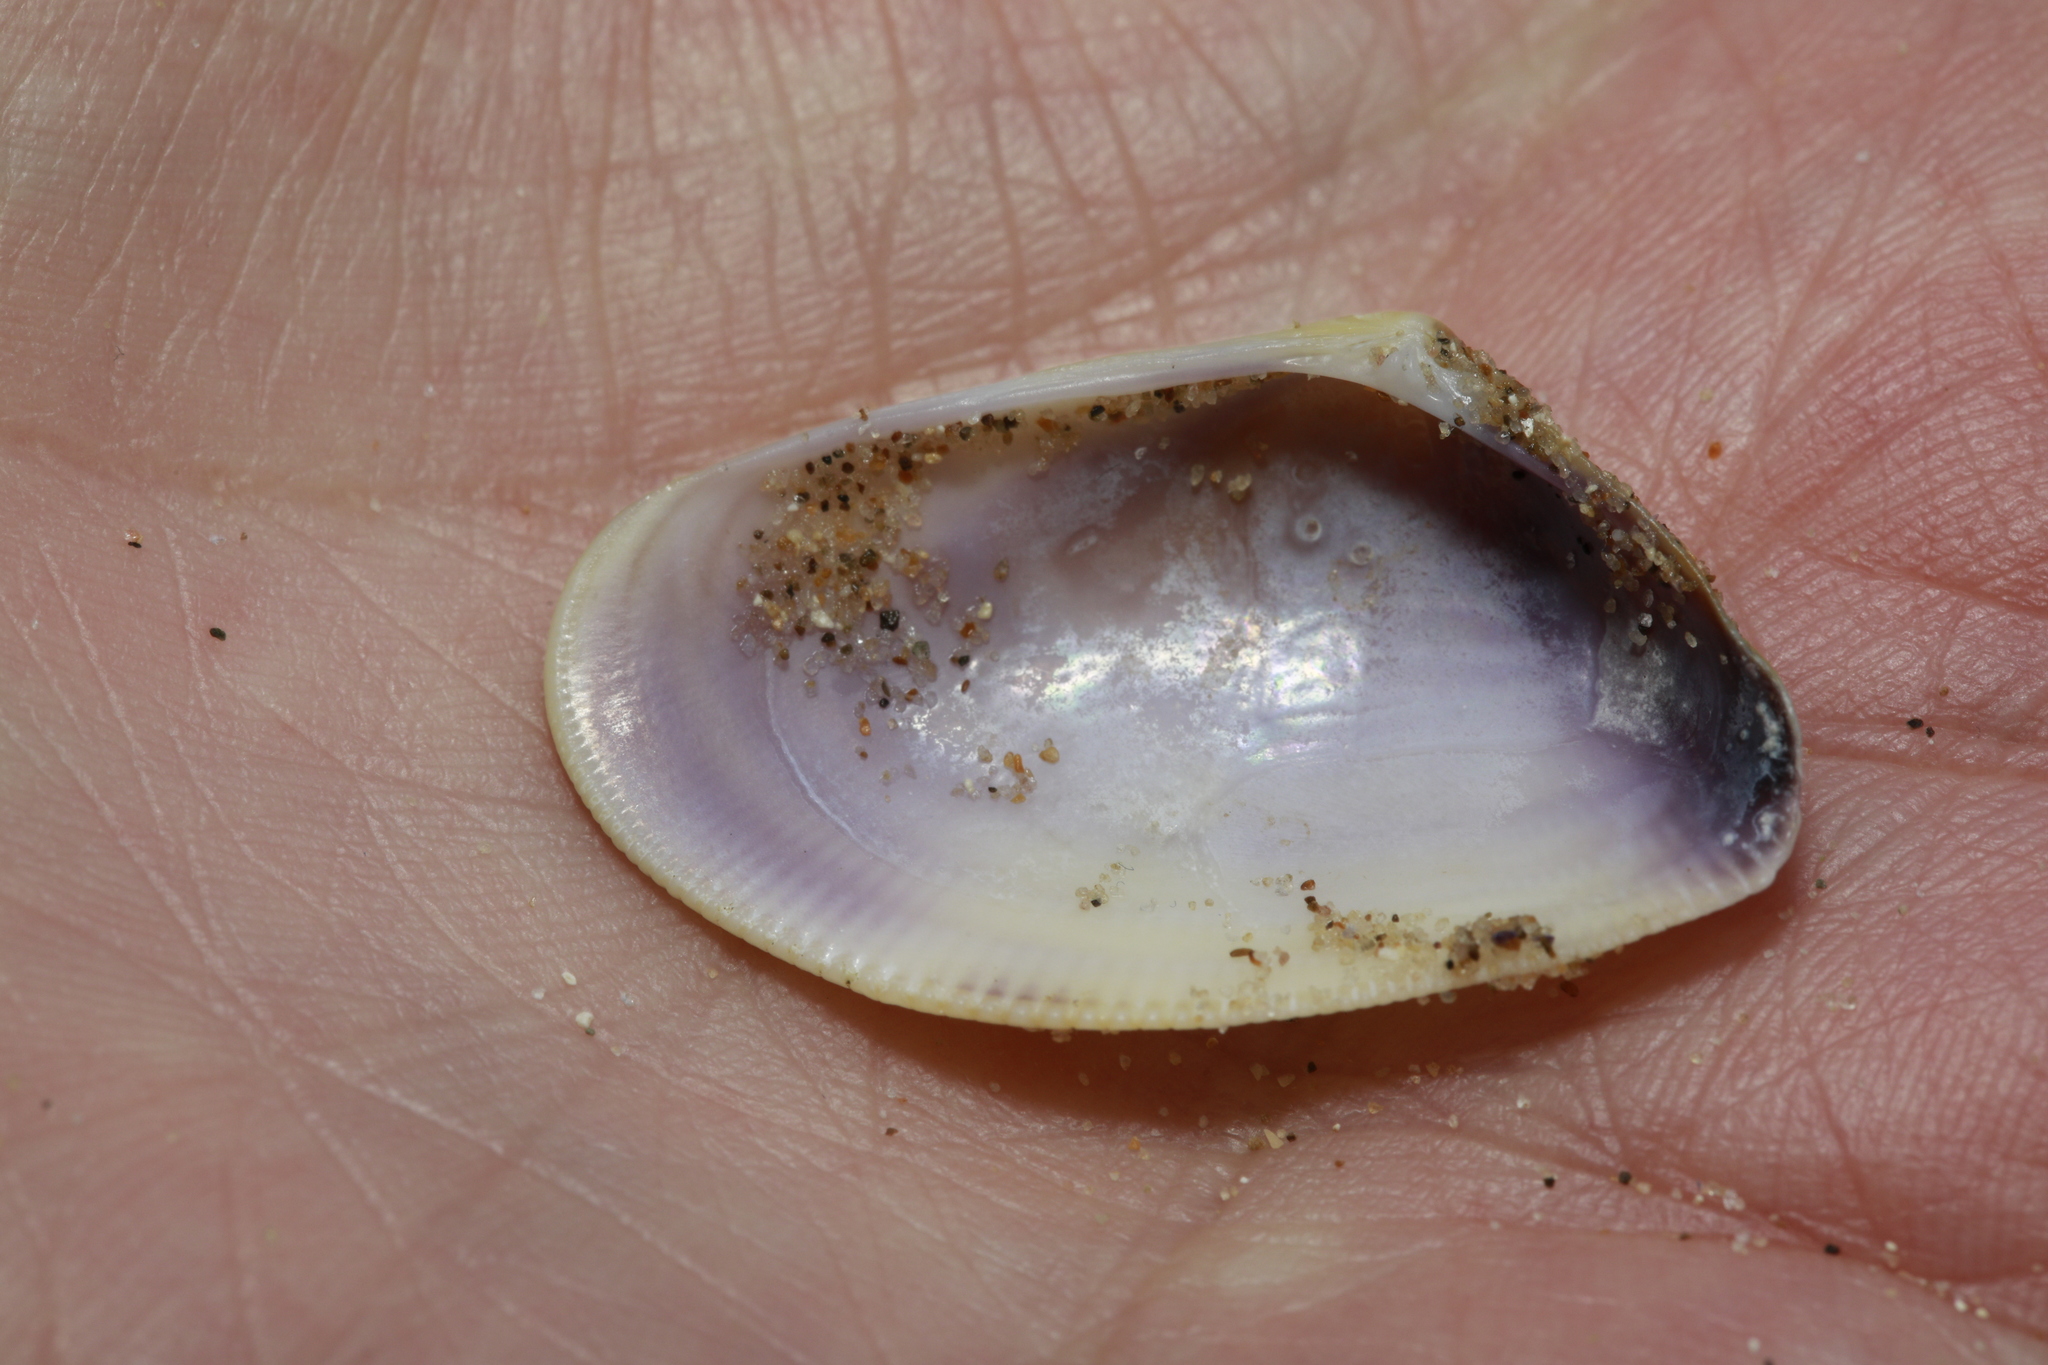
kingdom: Animalia
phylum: Mollusca
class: Bivalvia
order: Cardiida
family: Donacidae
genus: Donax
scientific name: Donax vittatus
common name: Banded wedge-shell
